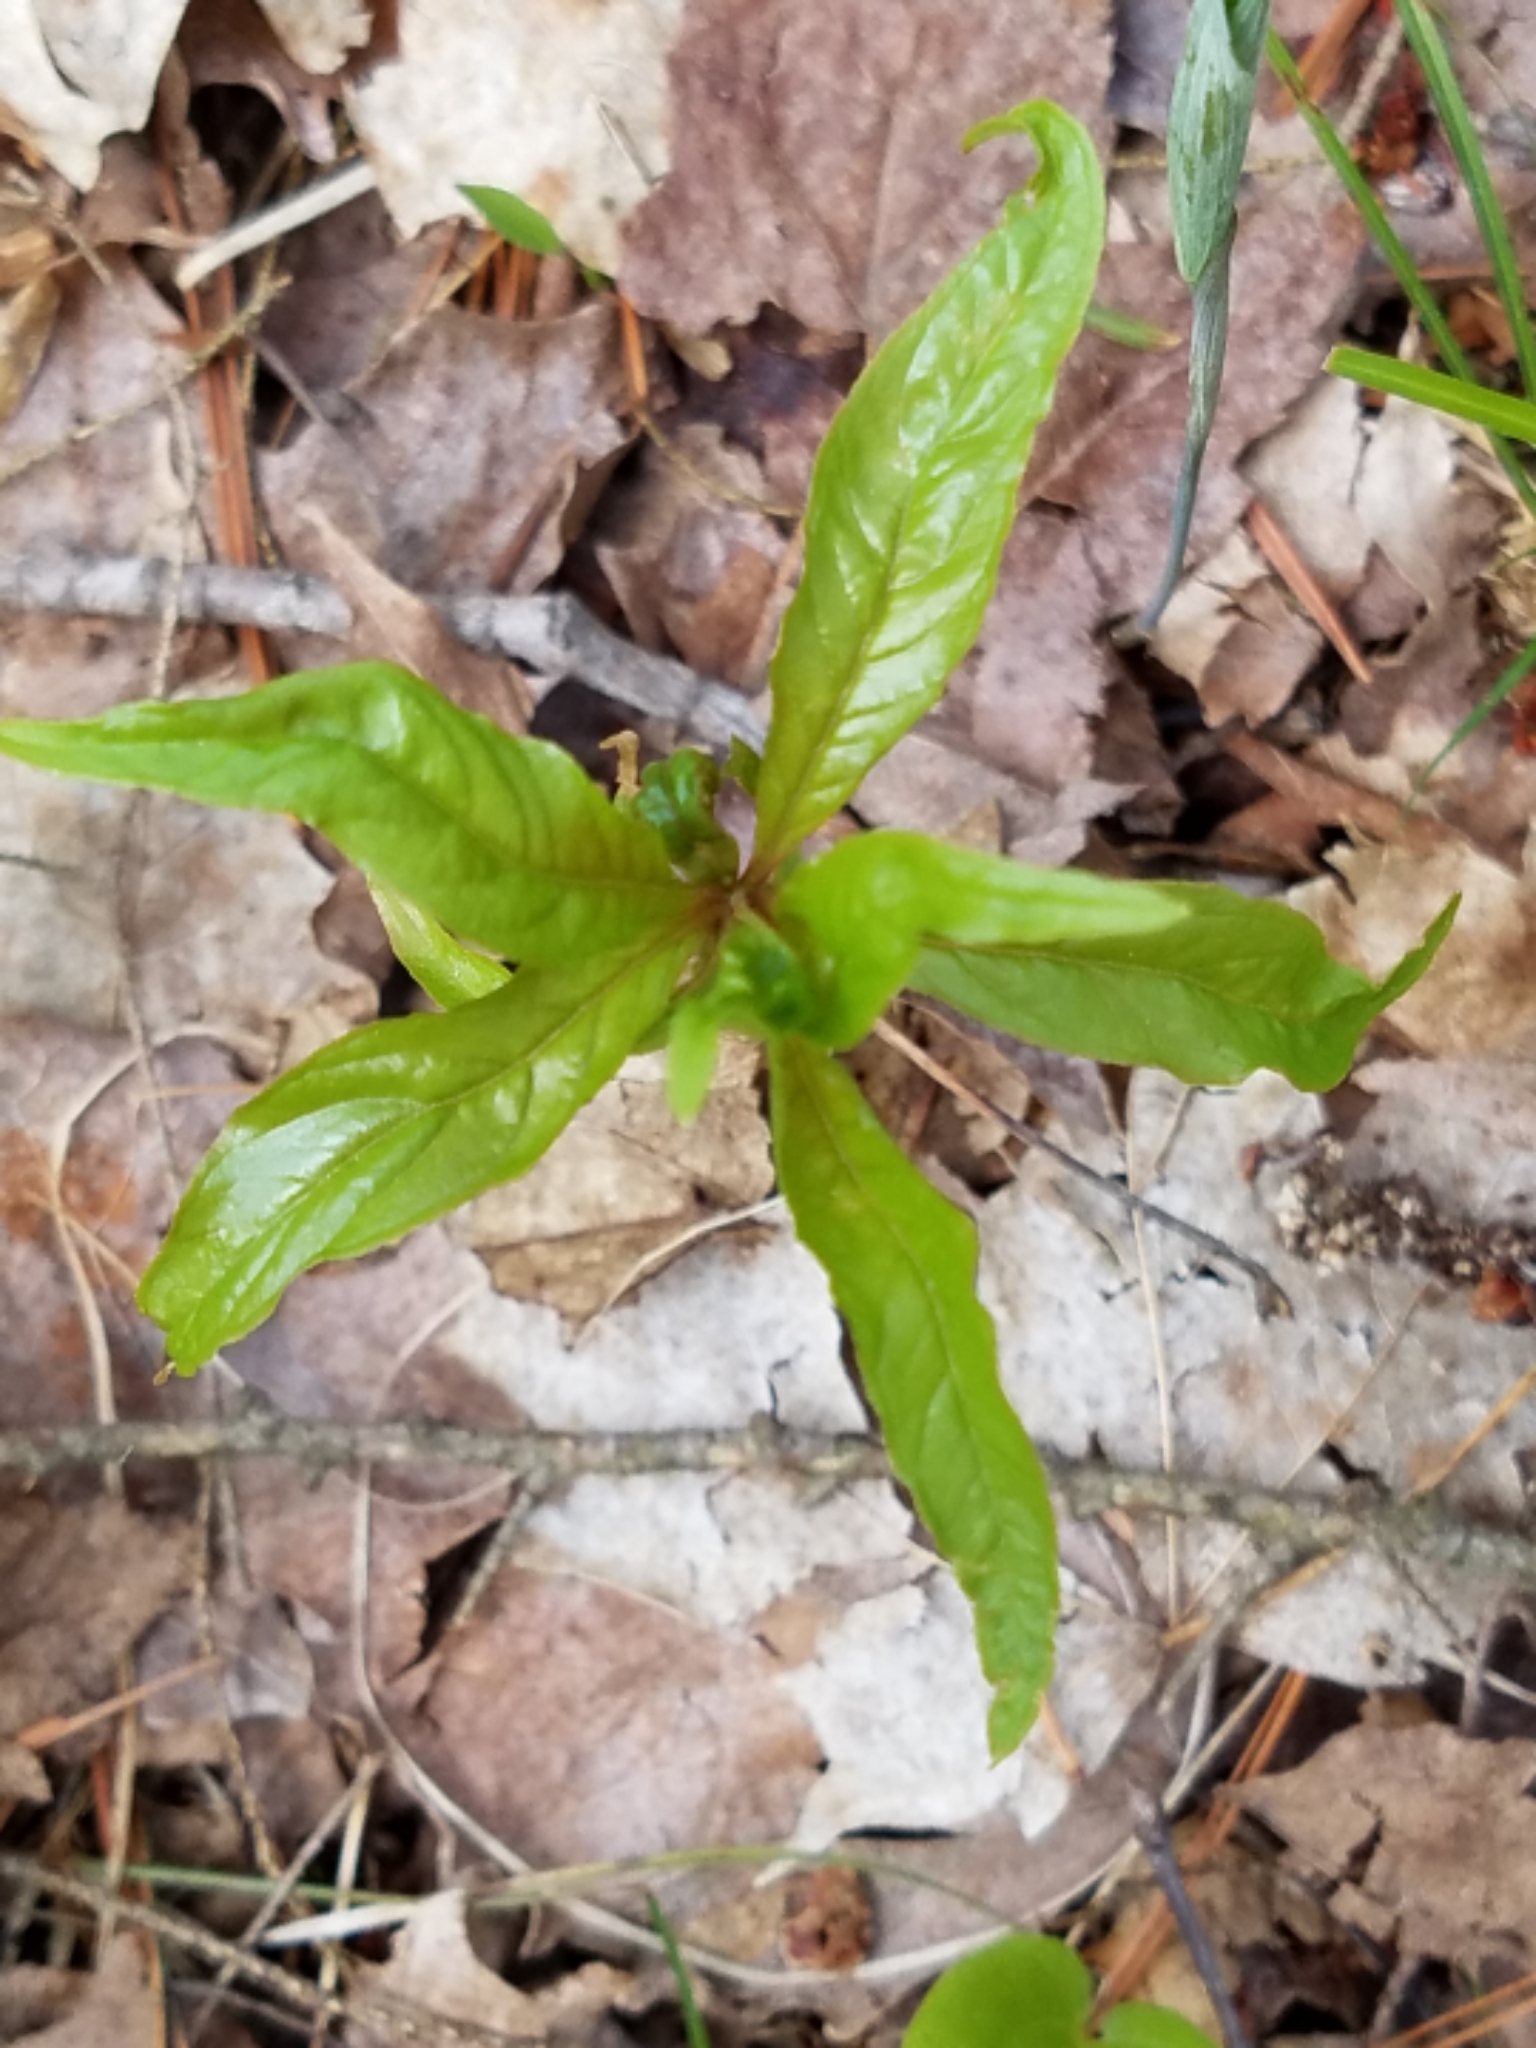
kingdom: Plantae
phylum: Tracheophyta
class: Magnoliopsida
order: Ericales
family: Primulaceae
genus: Lysimachia
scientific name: Lysimachia borealis
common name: American starflower
